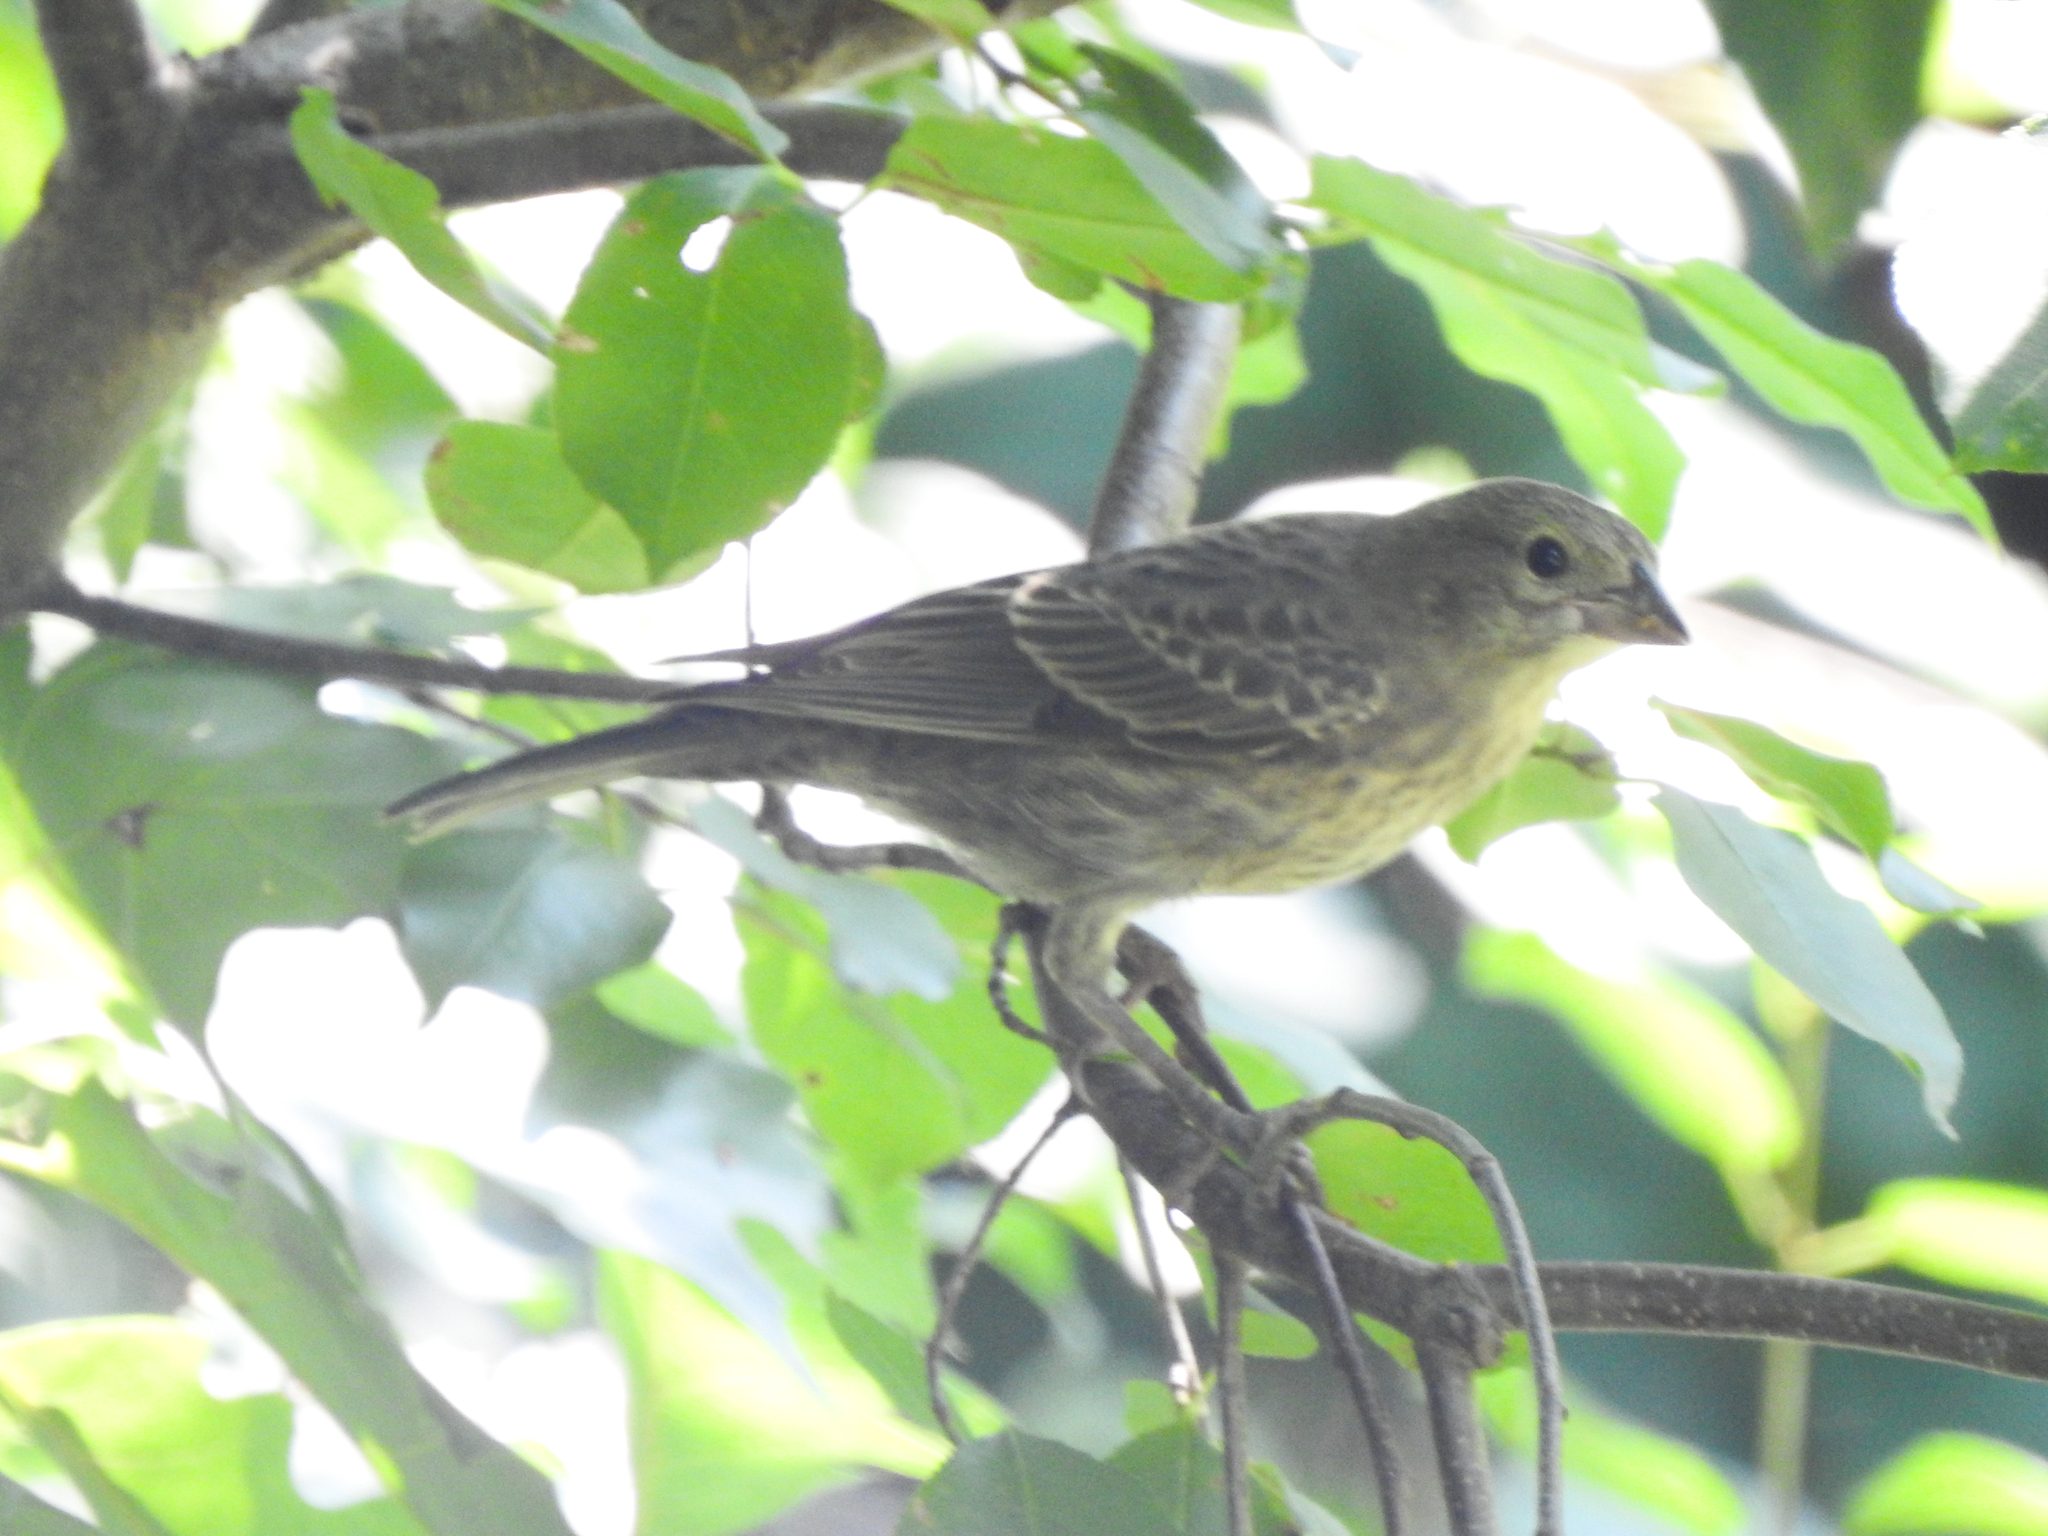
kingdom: Animalia
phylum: Chordata
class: Aves
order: Passeriformes
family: Icteridae
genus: Molothrus
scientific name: Molothrus ater
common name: Brown-headed cowbird
